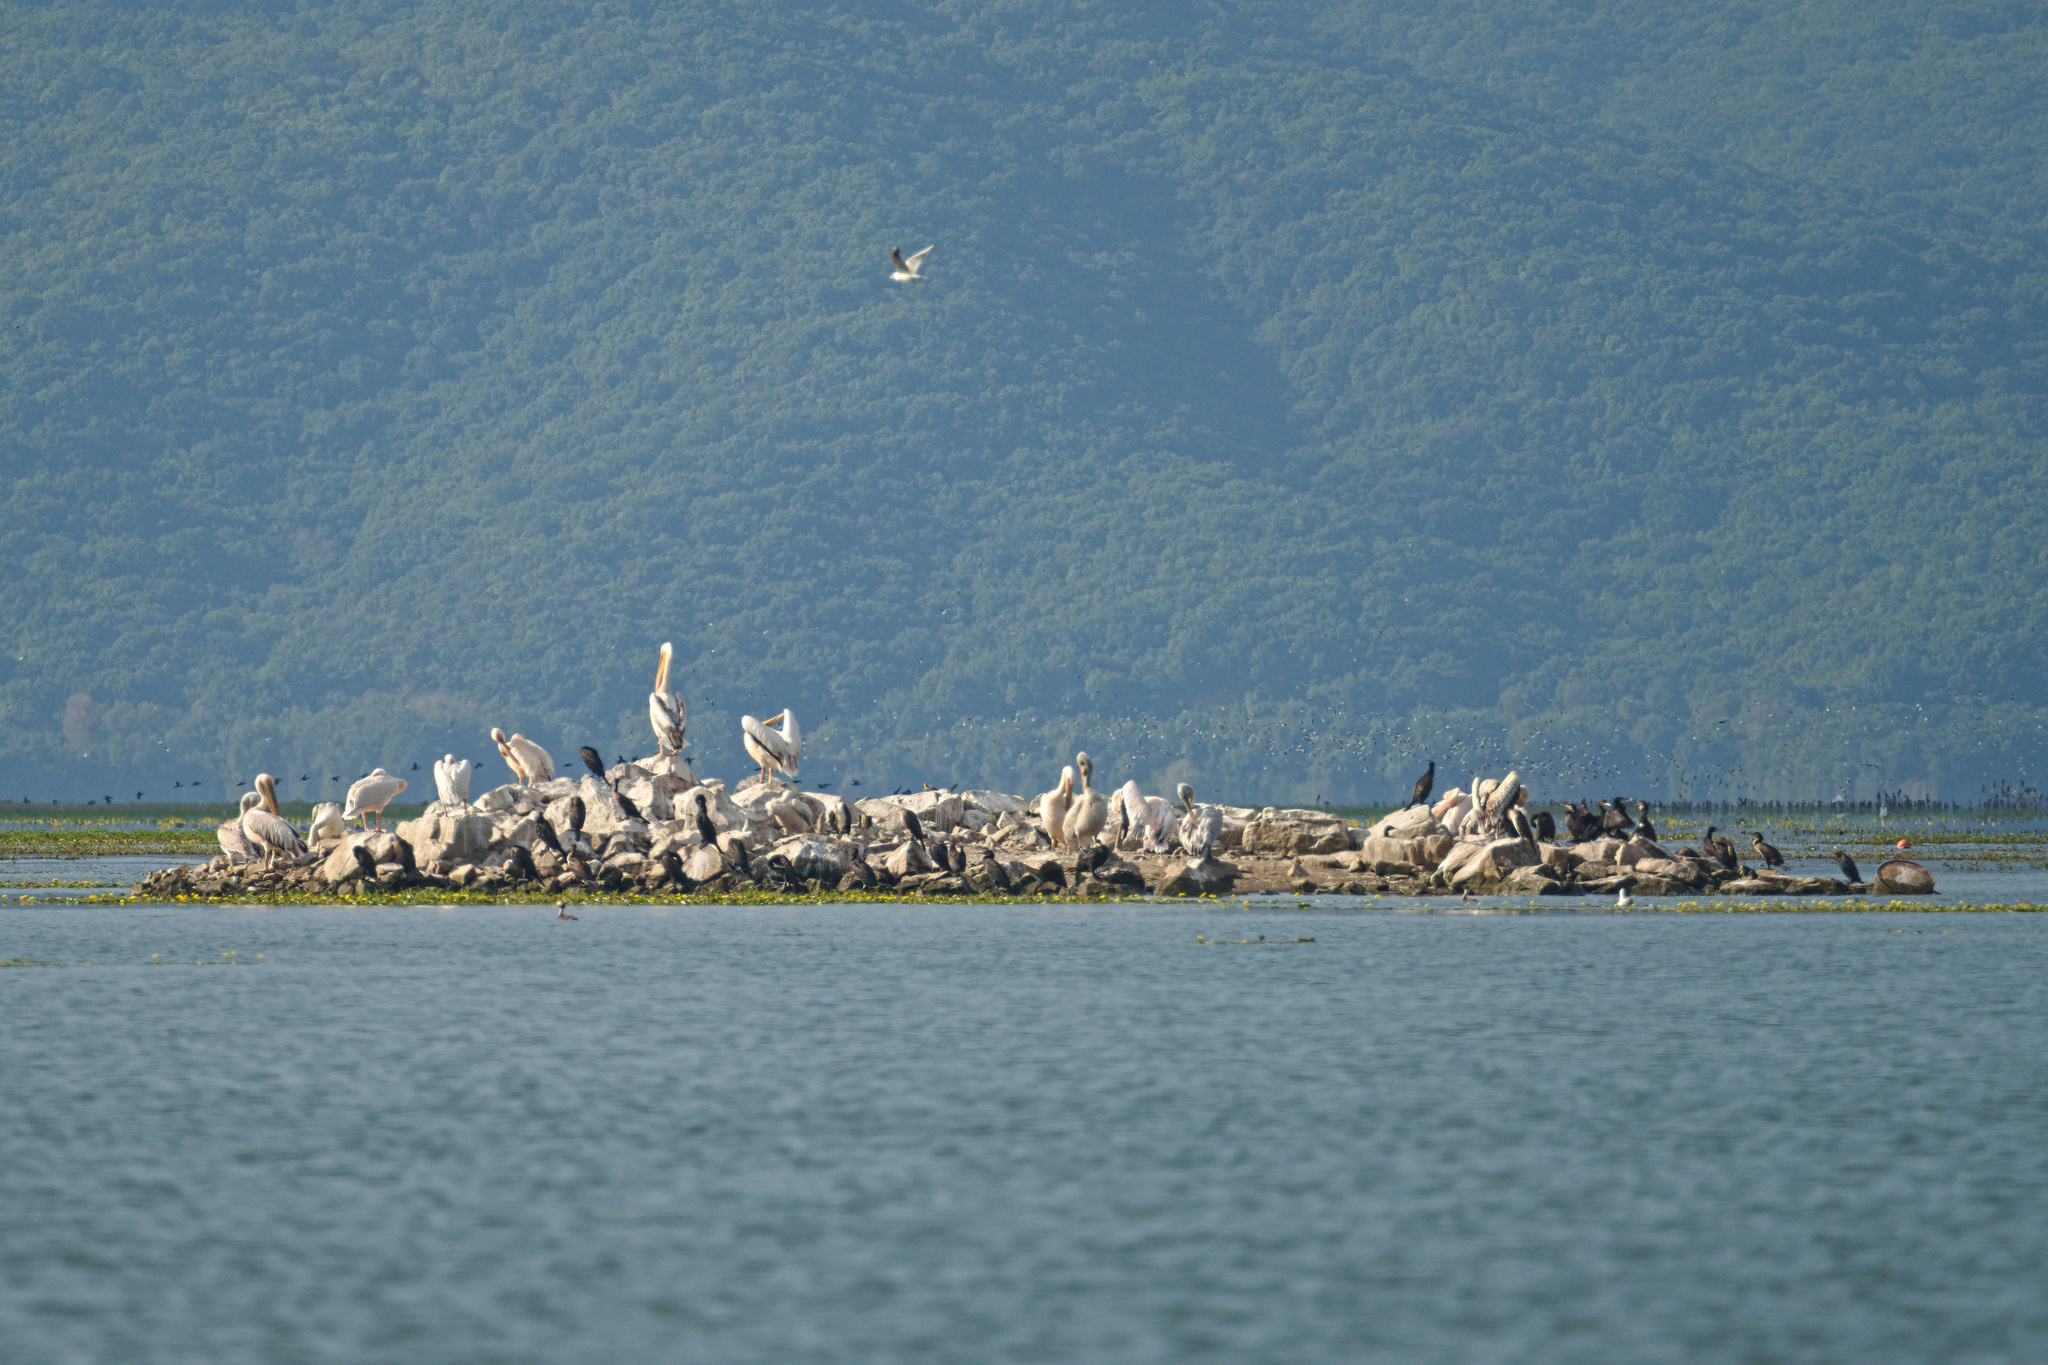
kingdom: Animalia
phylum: Chordata
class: Aves
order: Pelecaniformes
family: Pelecanidae
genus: Pelecanus
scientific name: Pelecanus onocrotalus
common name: Great white pelican
